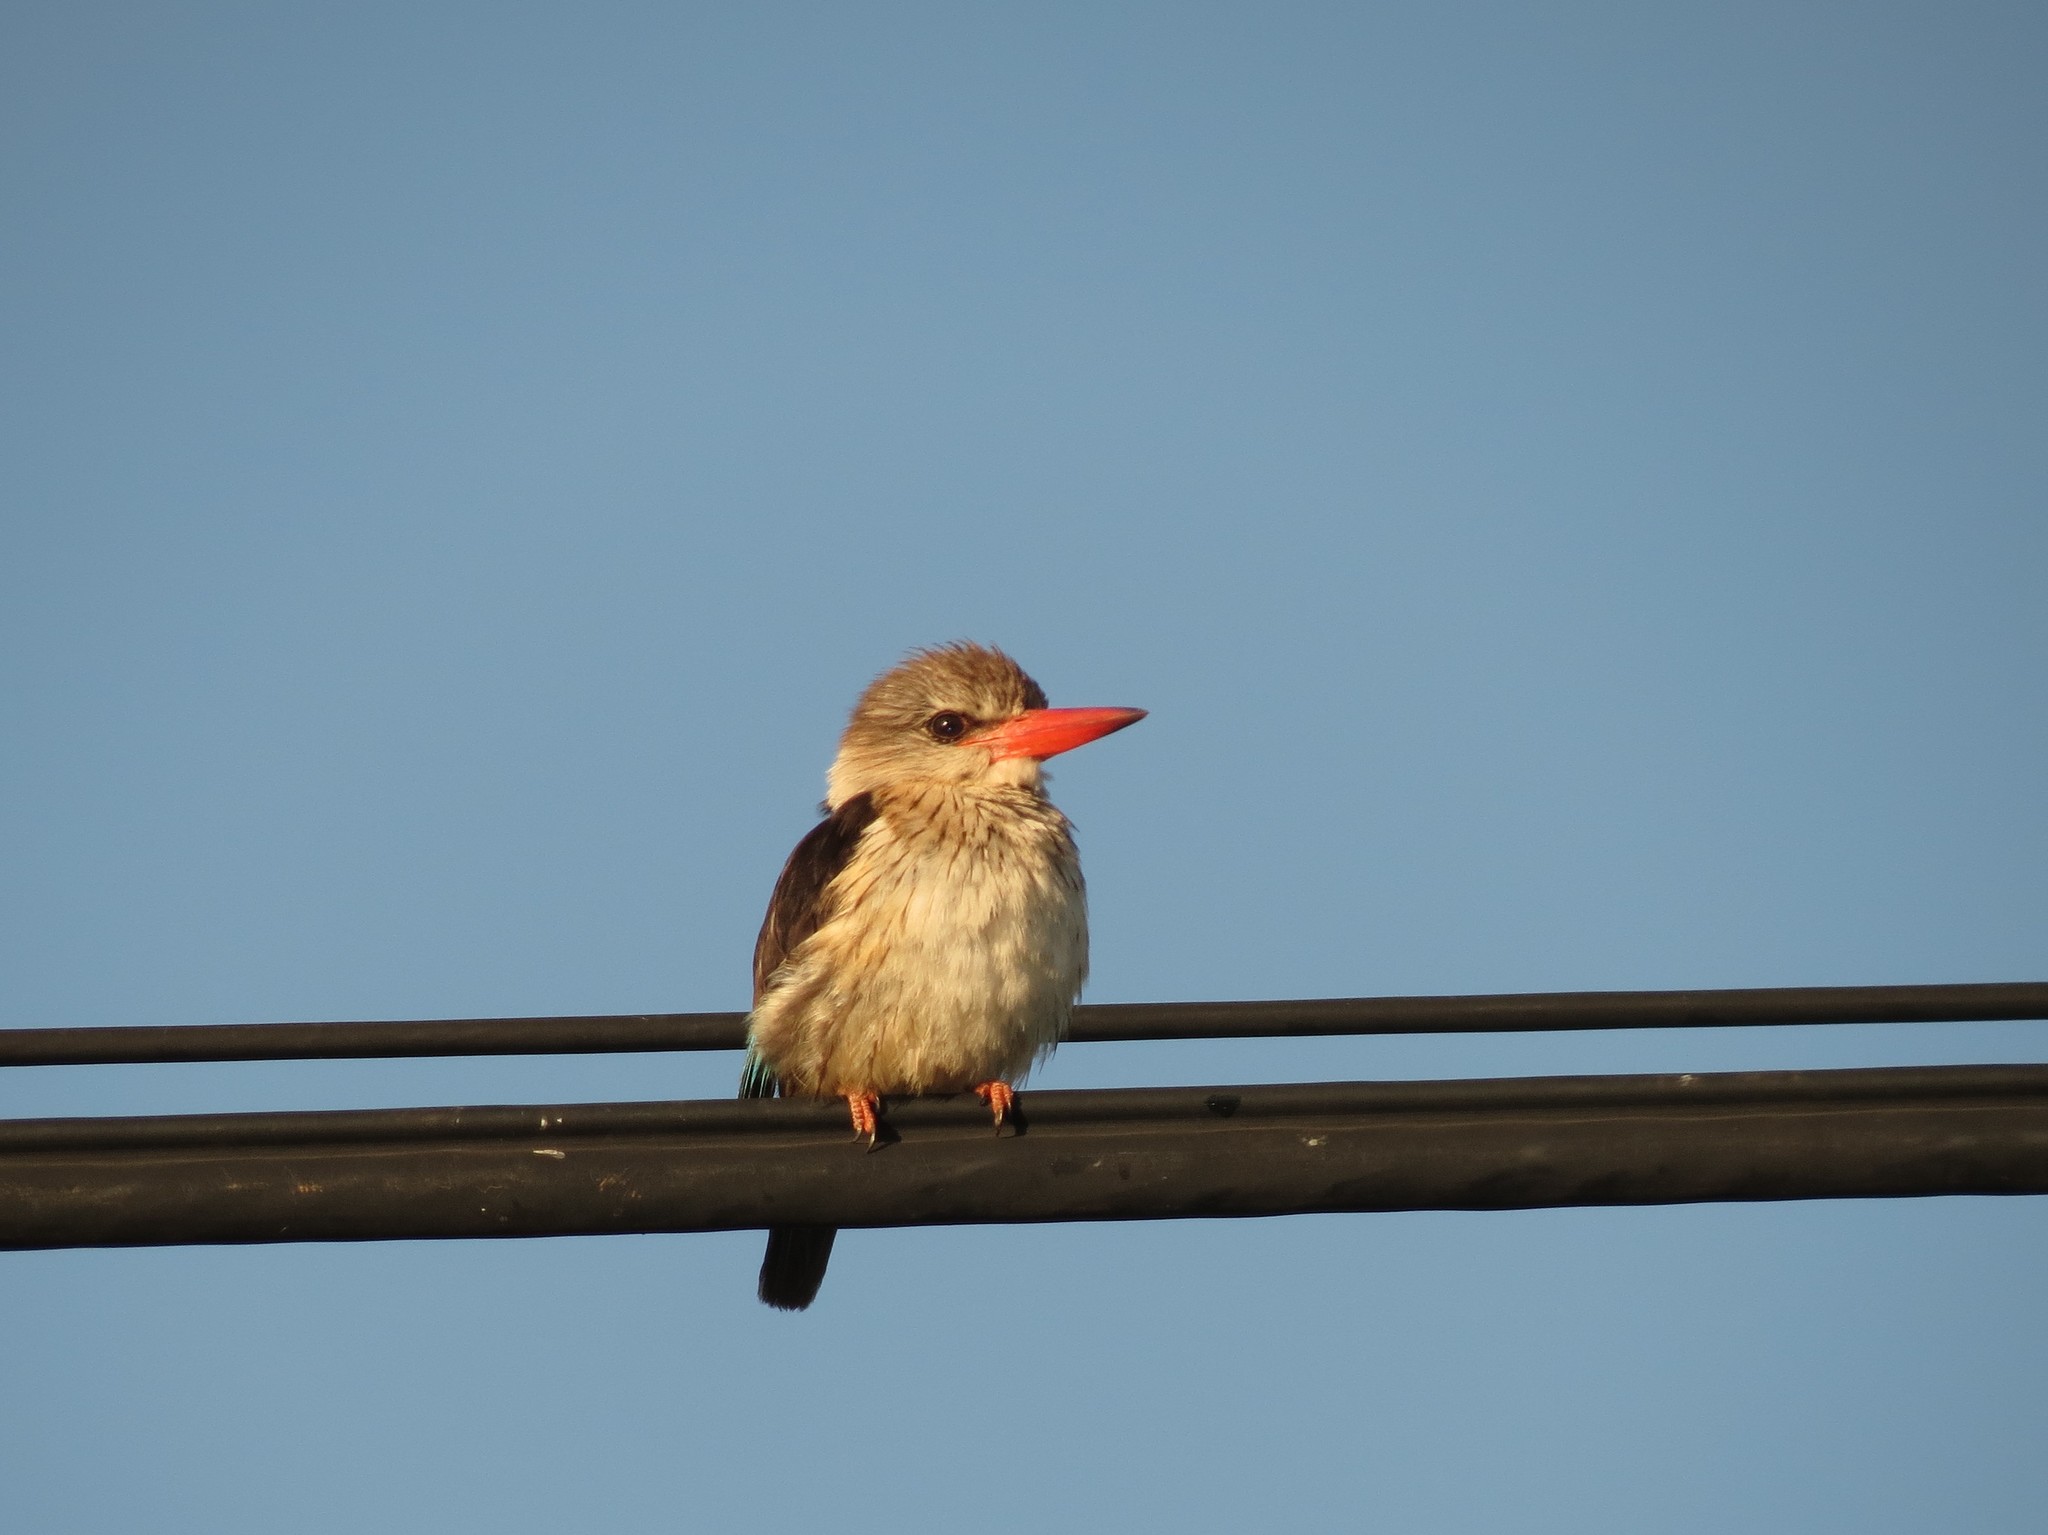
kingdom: Animalia
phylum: Chordata
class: Aves
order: Coraciiformes
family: Alcedinidae
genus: Halcyon
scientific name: Halcyon albiventris
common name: Brown-hooded kingfisher
